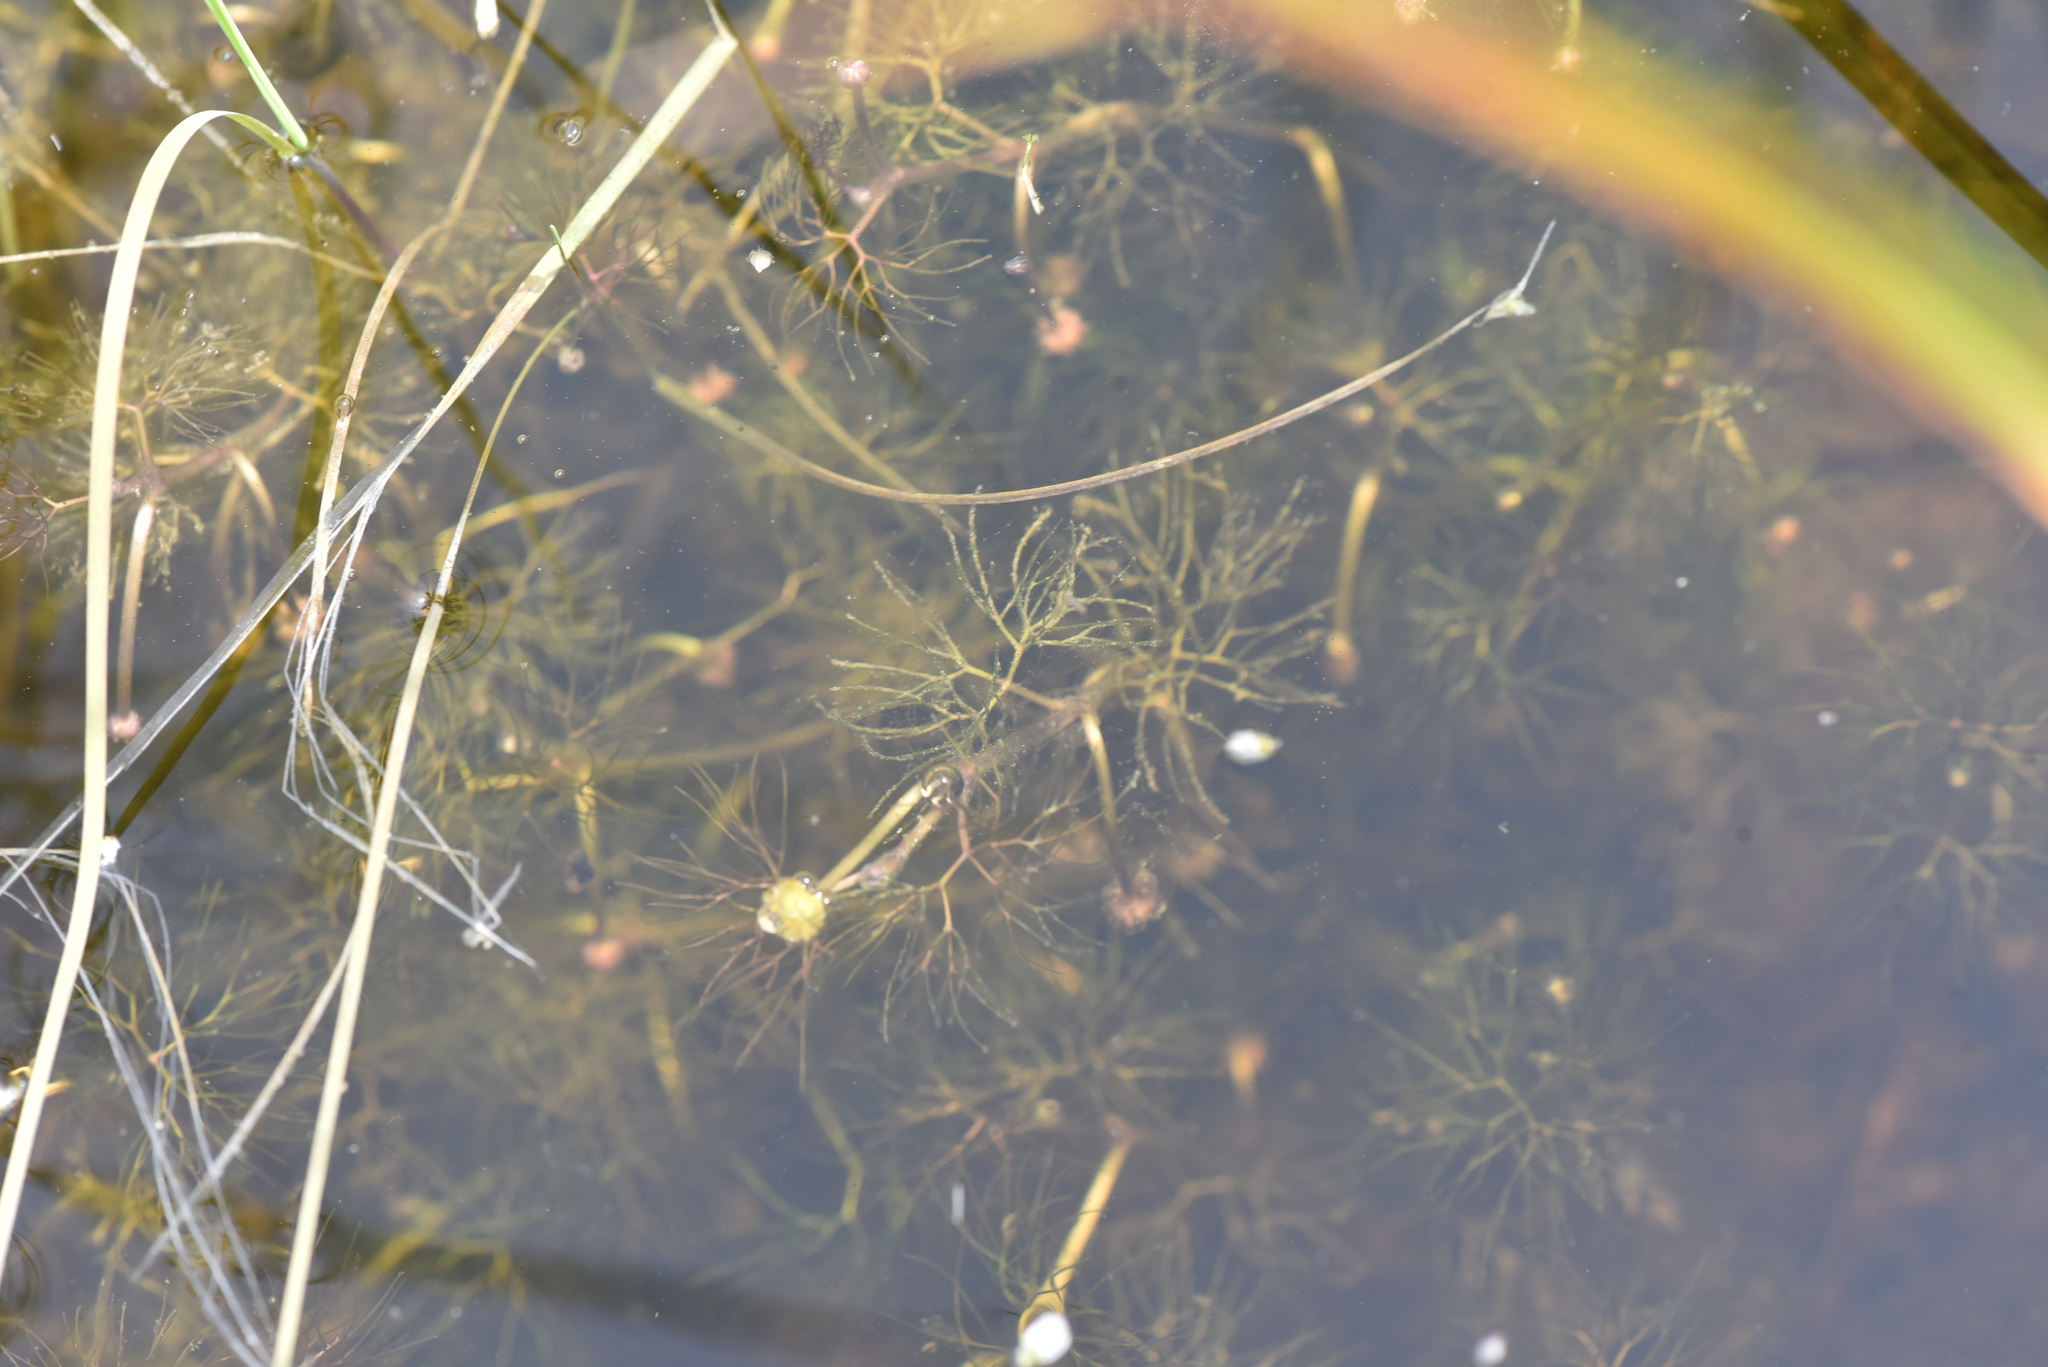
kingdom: Plantae
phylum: Tracheophyta
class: Magnoliopsida
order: Ranunculales
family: Ranunculaceae
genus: Ranunculus
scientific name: Ranunculus trichophyllus
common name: Thread-leaved water-crowfoot
